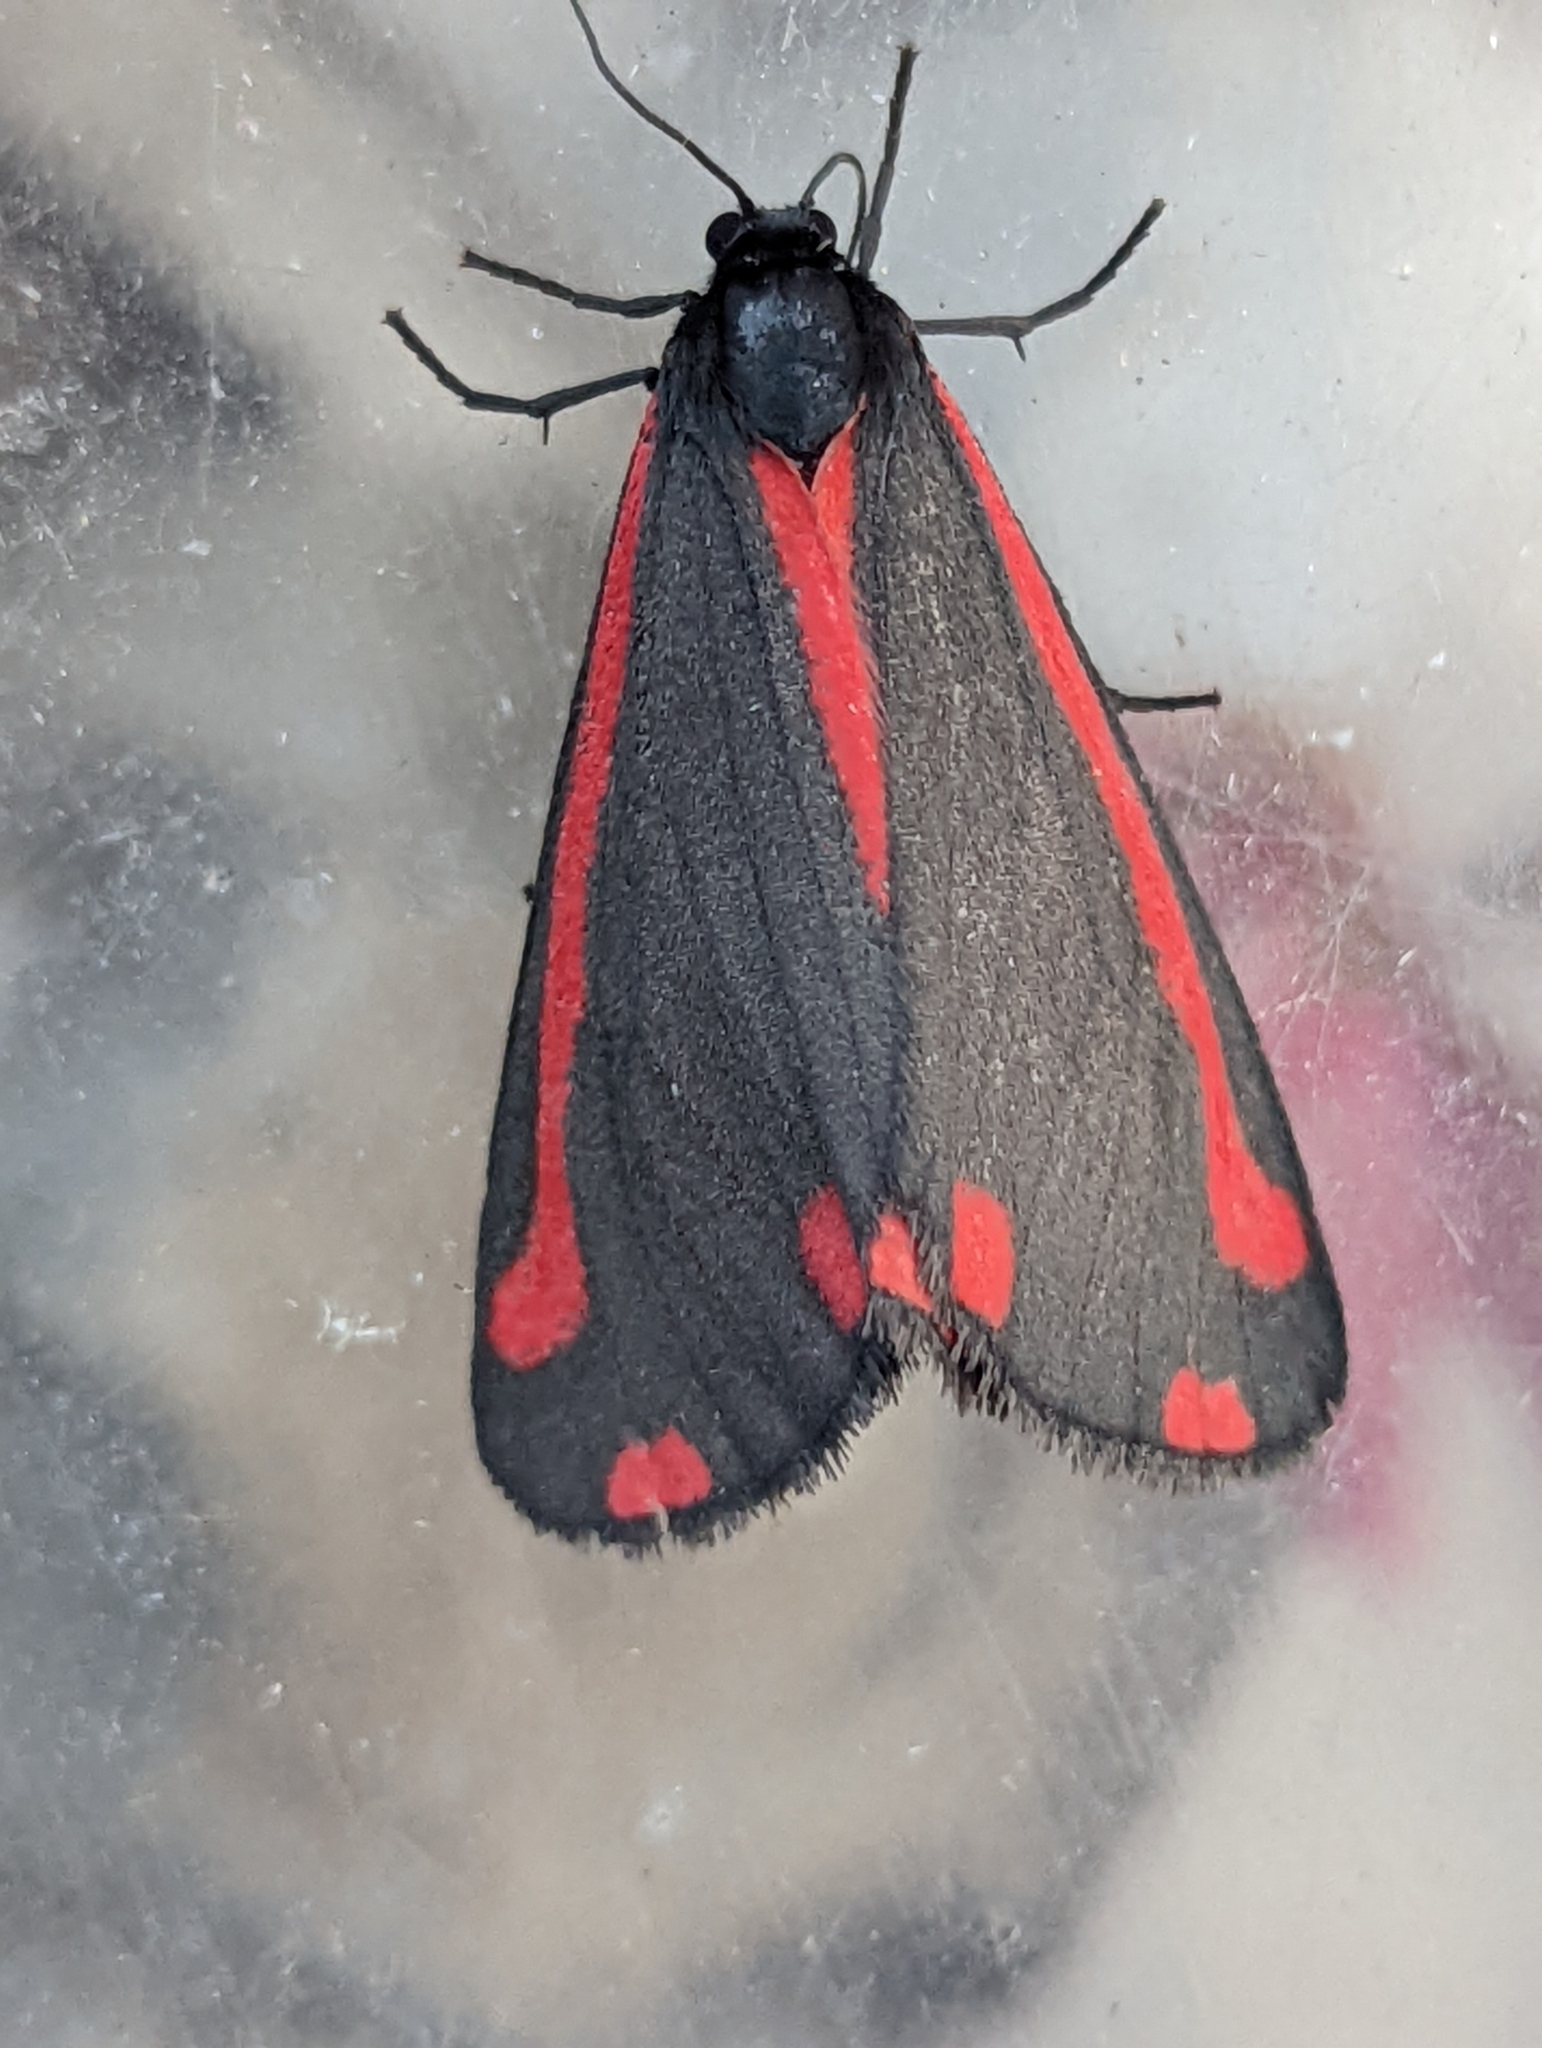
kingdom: Animalia
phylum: Arthropoda
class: Insecta
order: Lepidoptera
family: Erebidae
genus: Tyria
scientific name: Tyria jacobaeae
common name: Cinnabar
